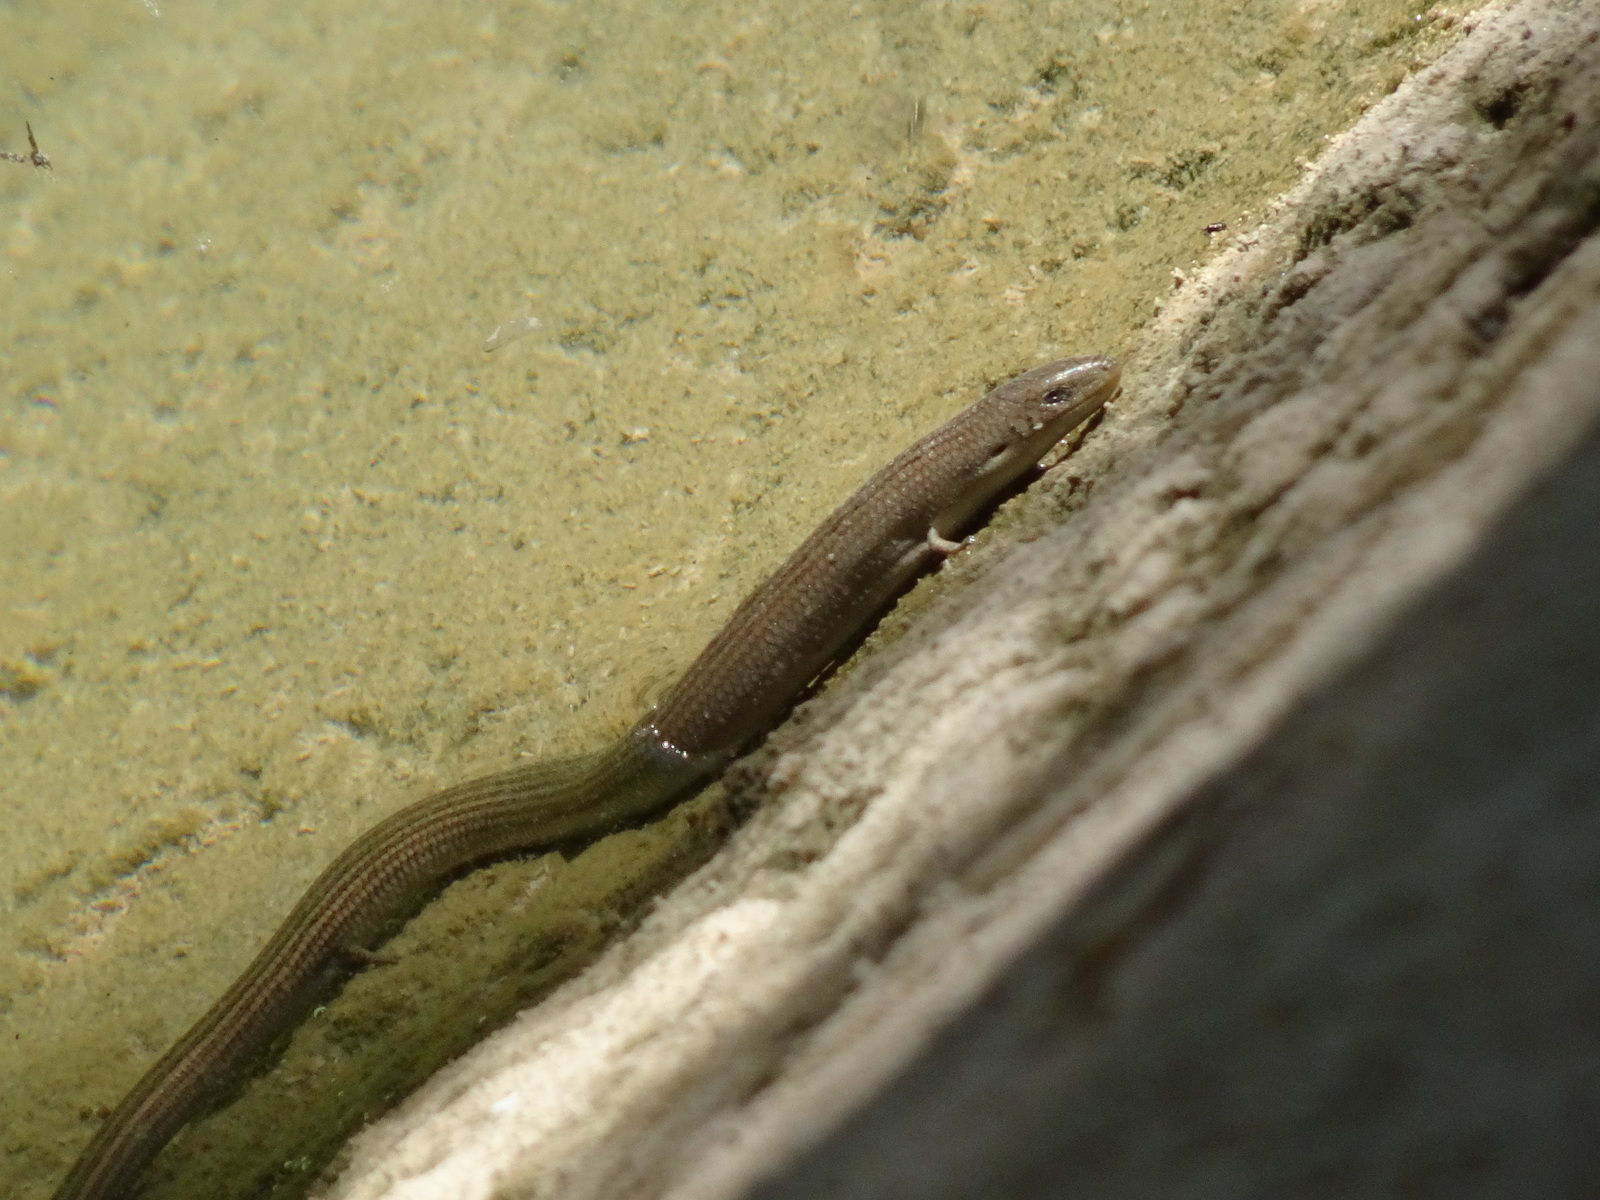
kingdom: Animalia
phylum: Chordata
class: Squamata
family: Scincidae
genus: Chalcides
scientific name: Chalcides striatus
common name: Western (or iberian) three-toed skink
